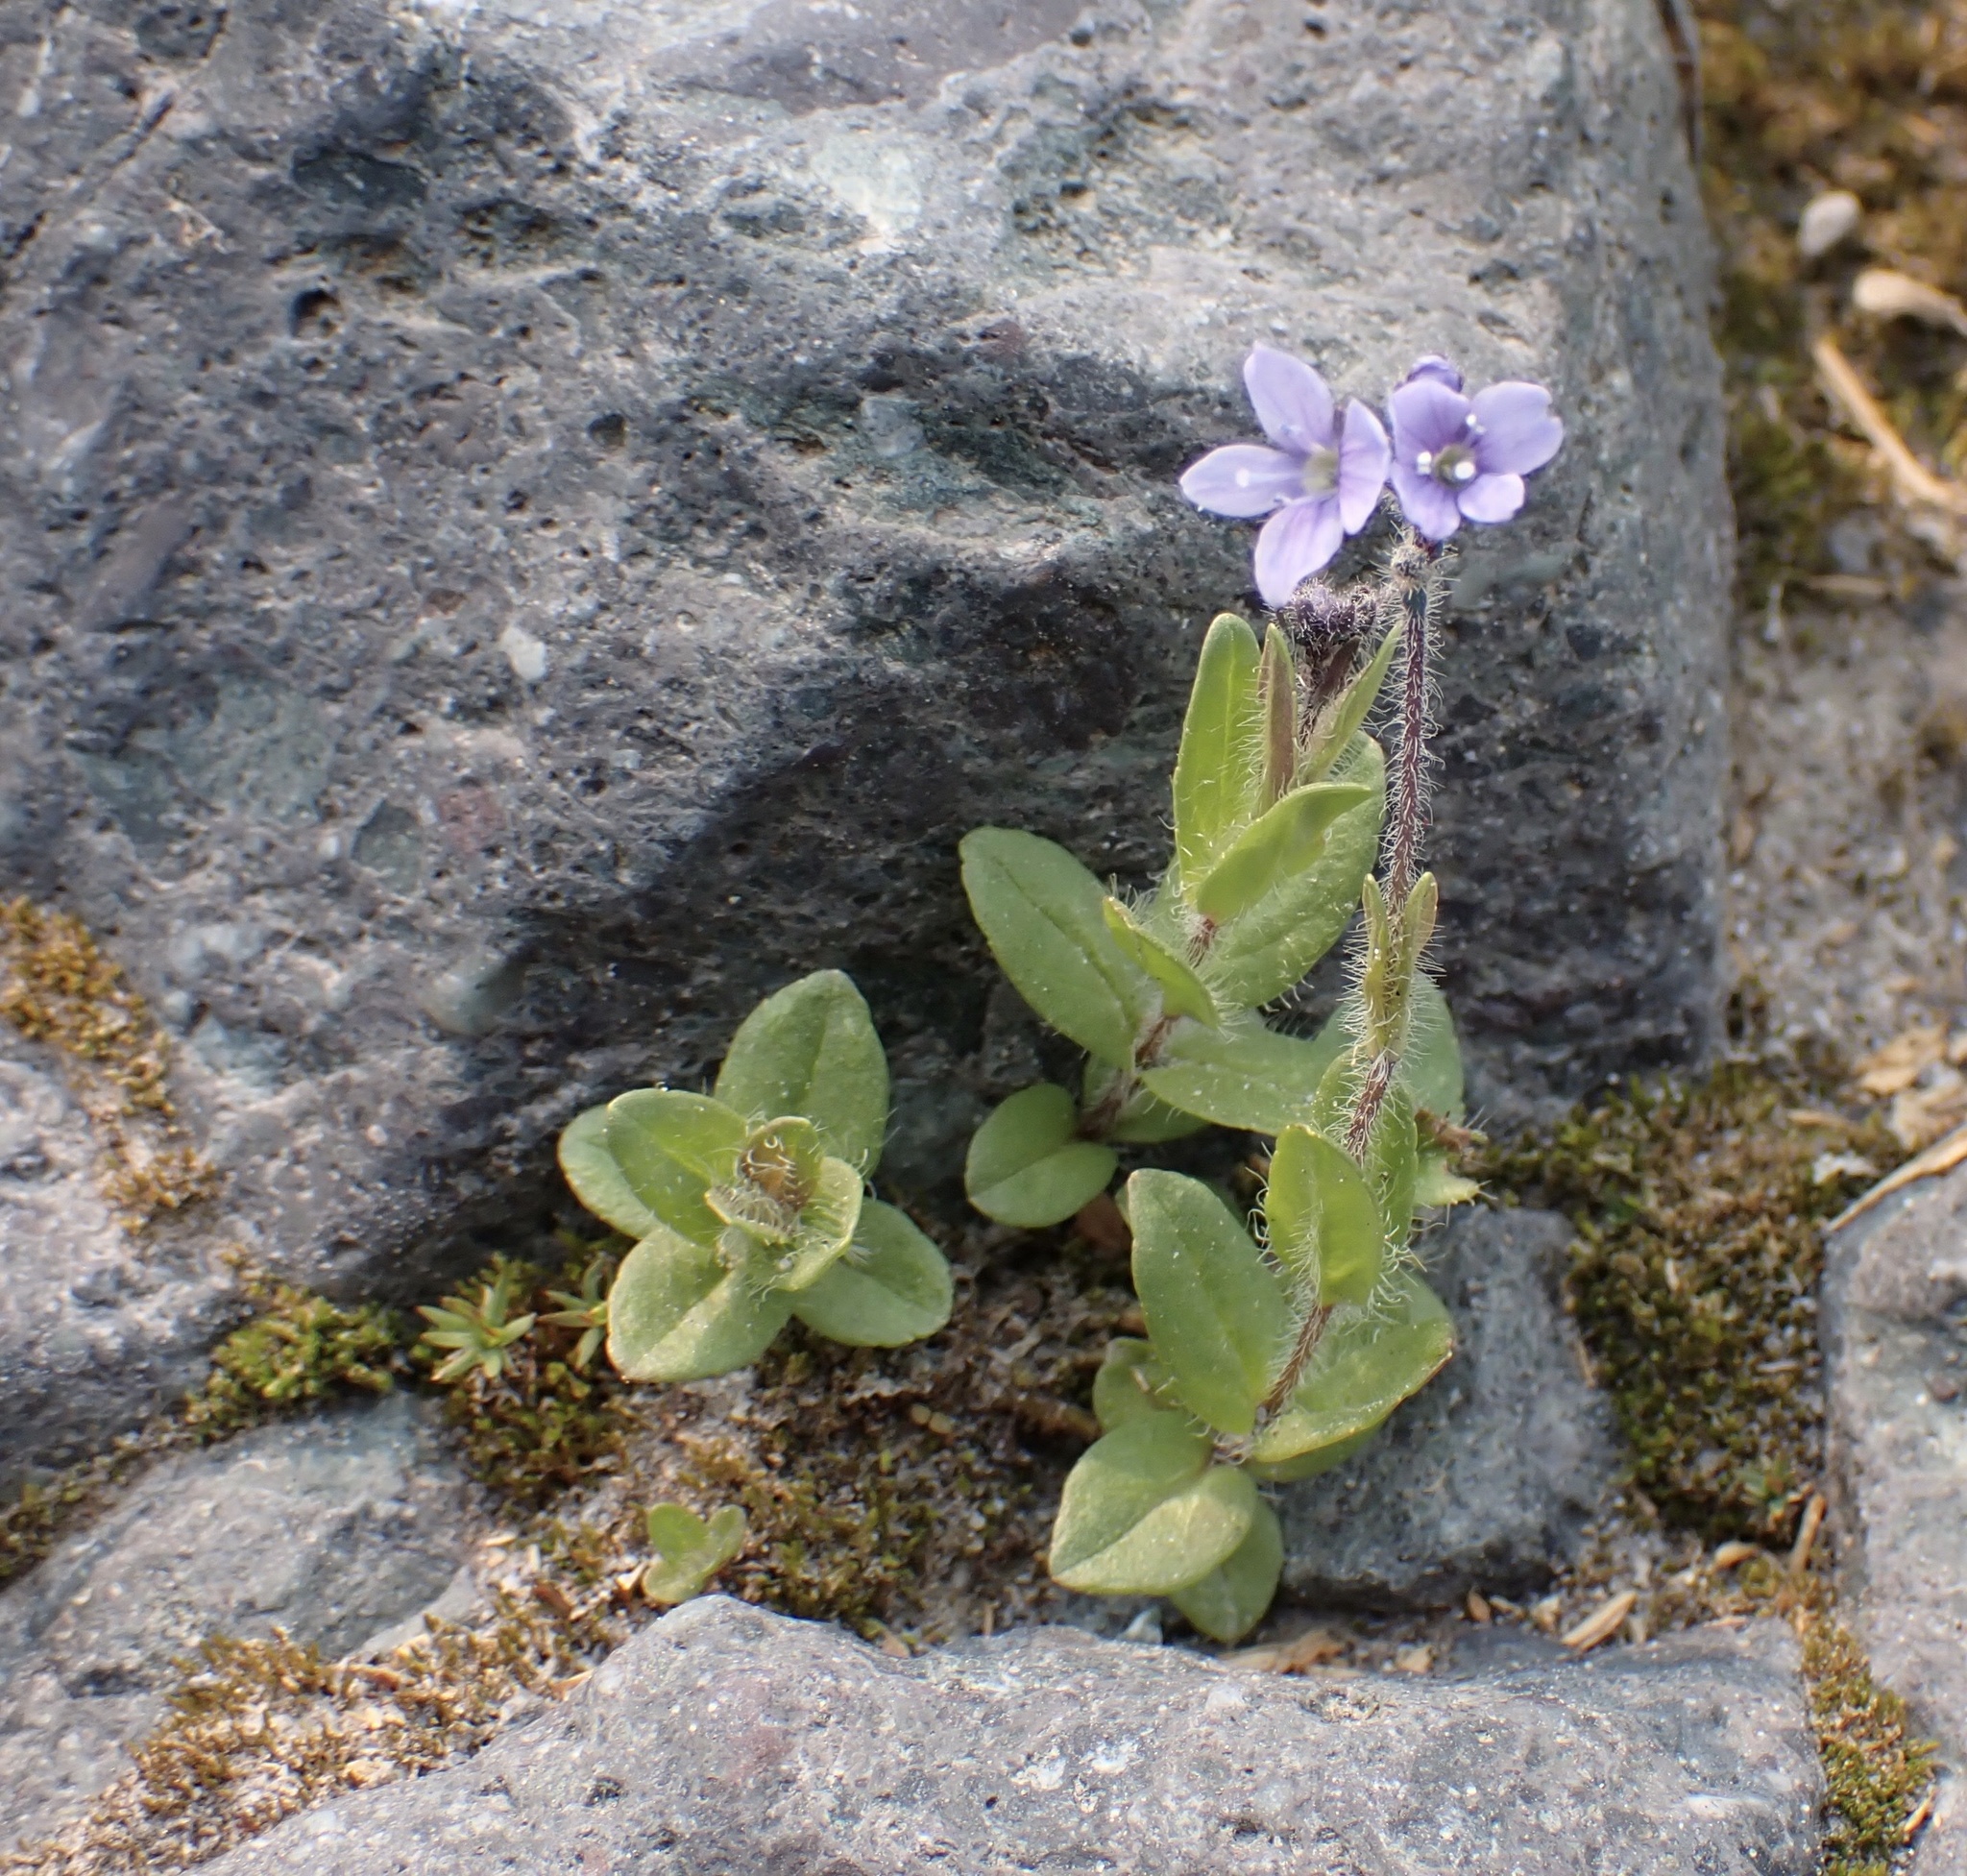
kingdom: Plantae
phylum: Tracheophyta
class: Magnoliopsida
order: Lamiales
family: Plantaginaceae
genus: Veronica
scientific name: Veronica wormskjoldii
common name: American alpine speedwell
